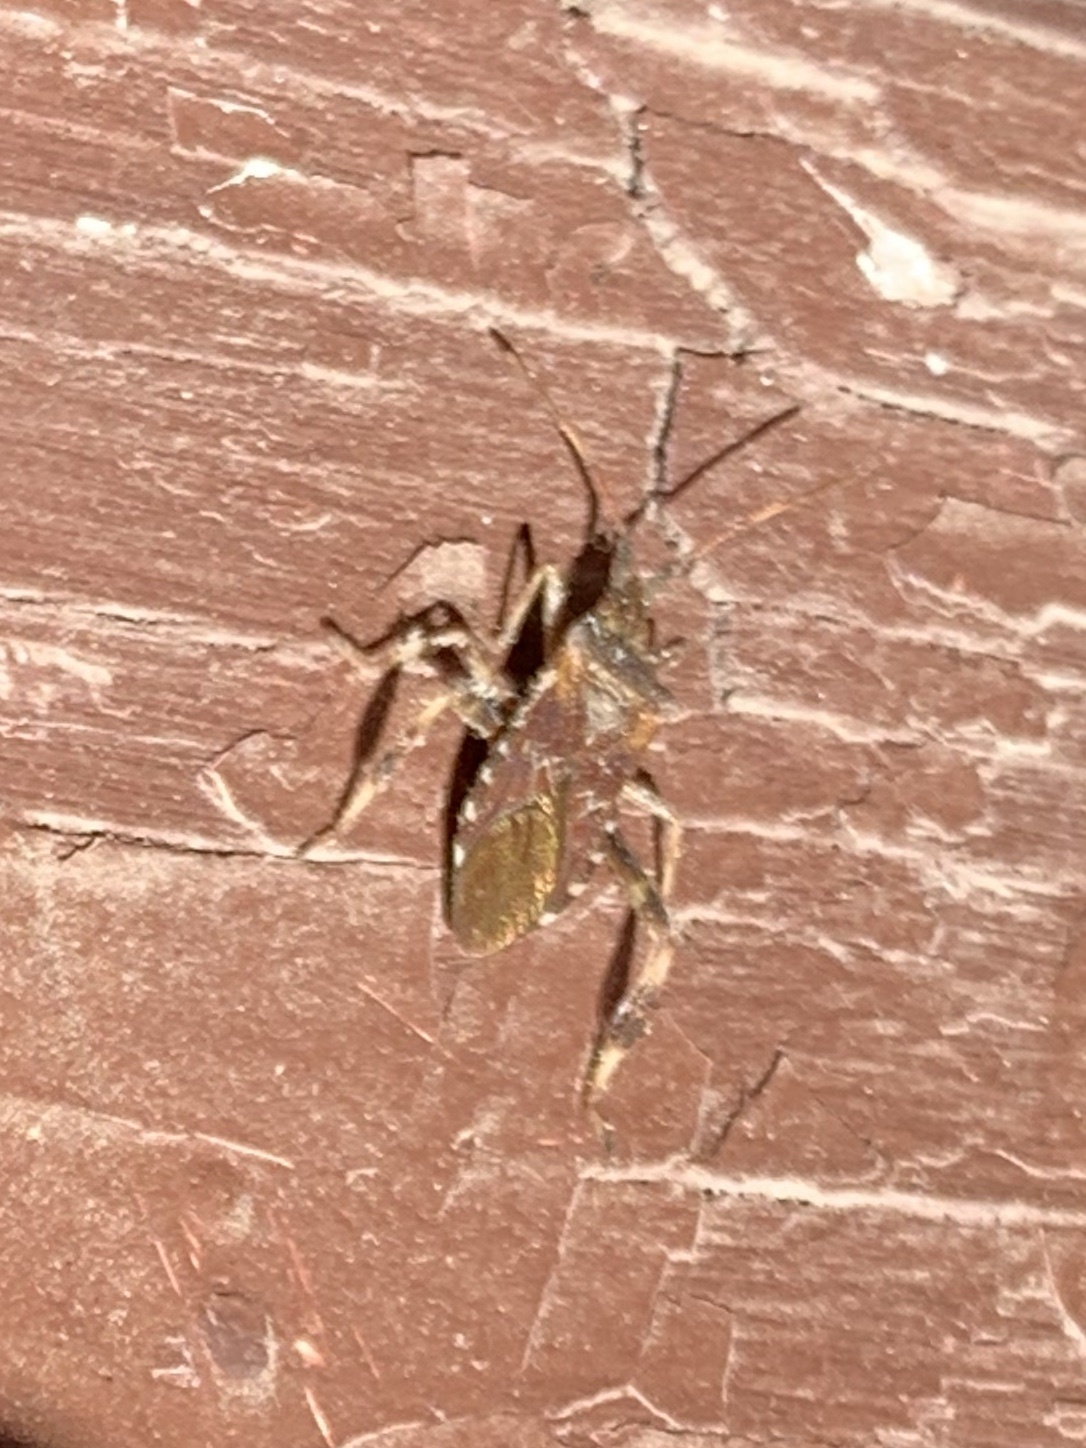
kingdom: Animalia
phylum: Arthropoda
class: Insecta
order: Hemiptera
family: Coreidae
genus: Leptoglossus
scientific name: Leptoglossus occidentalis
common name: Western conifer-seed bug
